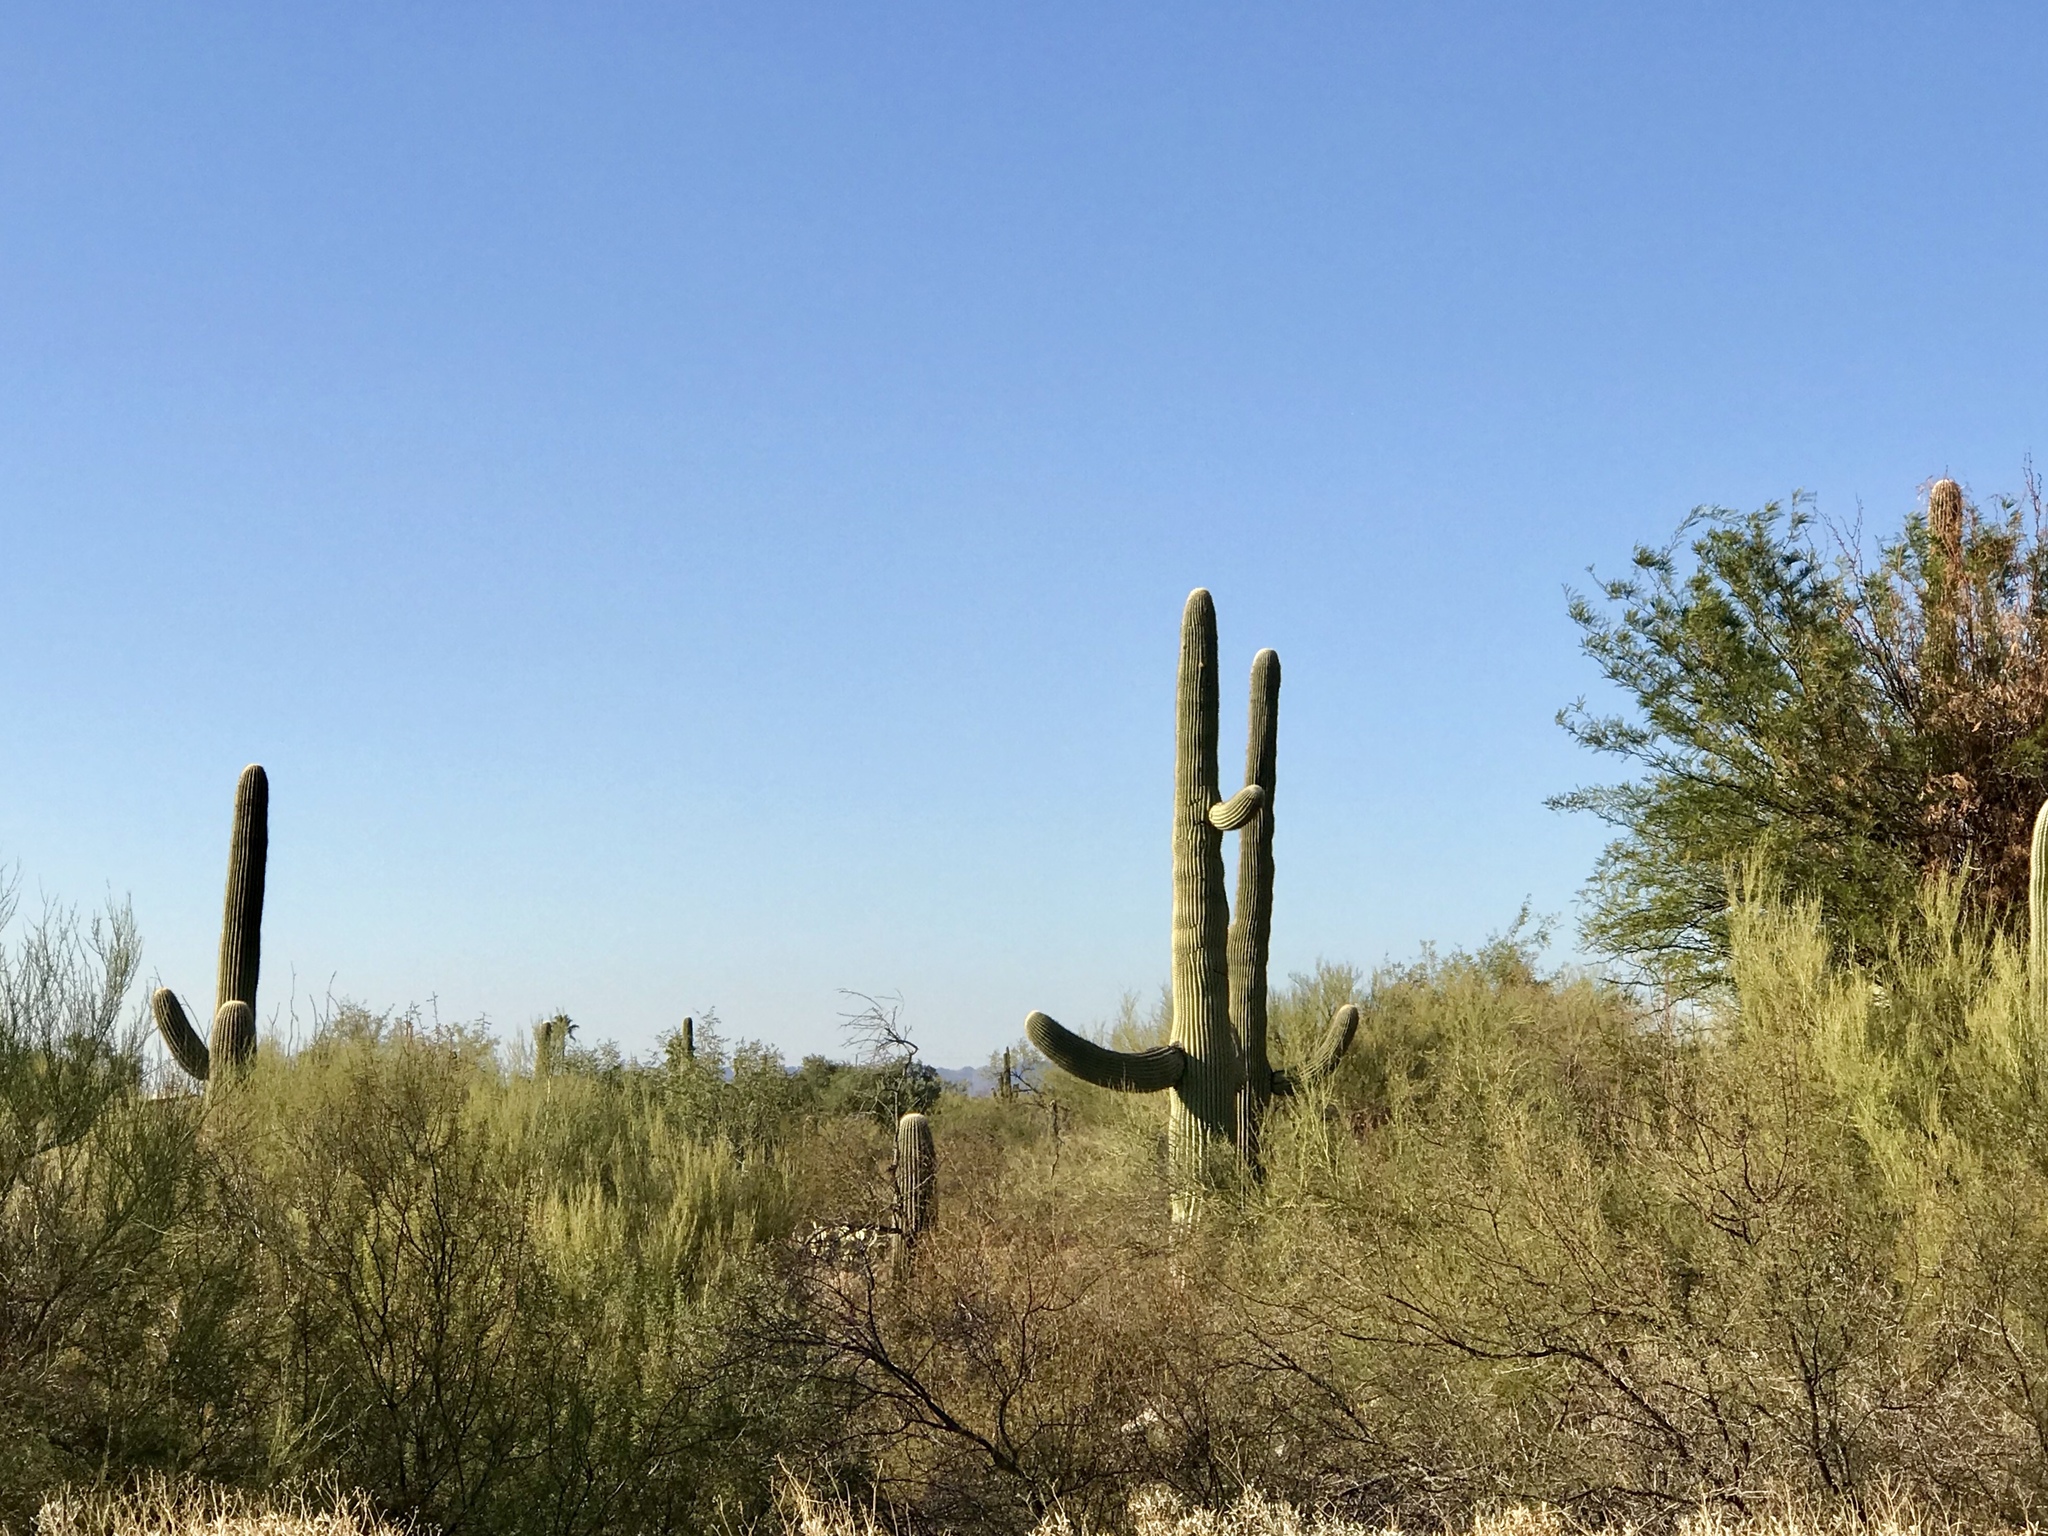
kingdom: Plantae
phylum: Tracheophyta
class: Magnoliopsida
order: Caryophyllales
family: Cactaceae
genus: Carnegiea
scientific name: Carnegiea gigantea
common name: Saguaro
